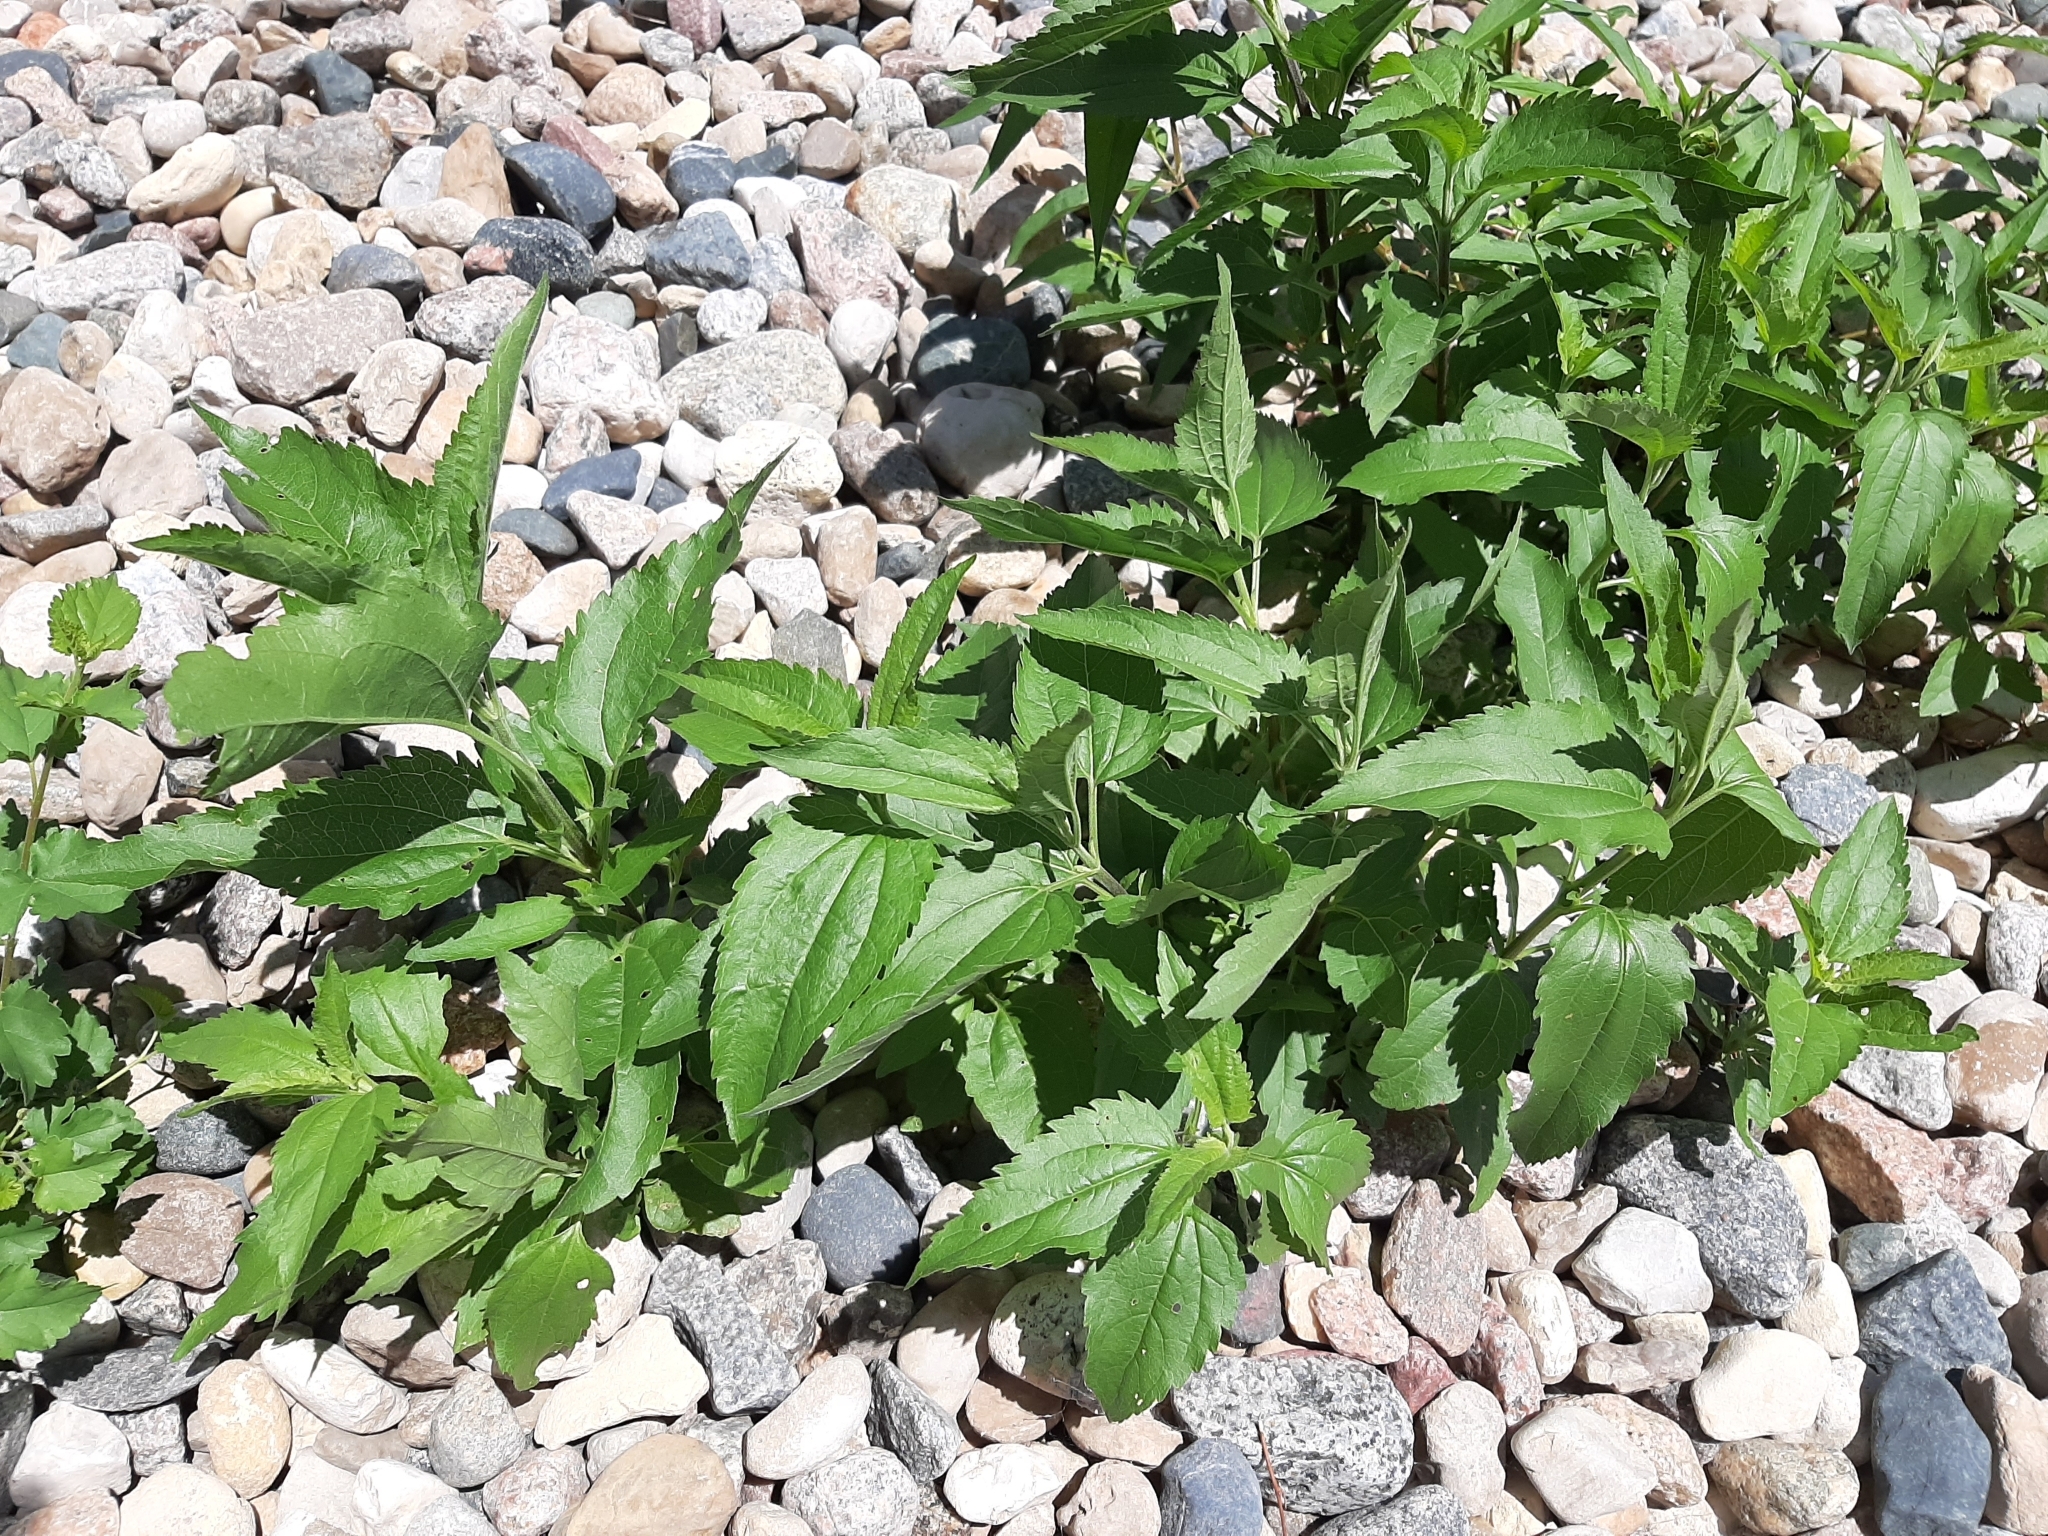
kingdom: Plantae
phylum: Tracheophyta
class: Magnoliopsida
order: Asterales
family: Asteraceae
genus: Eupatorium
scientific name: Eupatorium serotinum
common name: Late boneset
